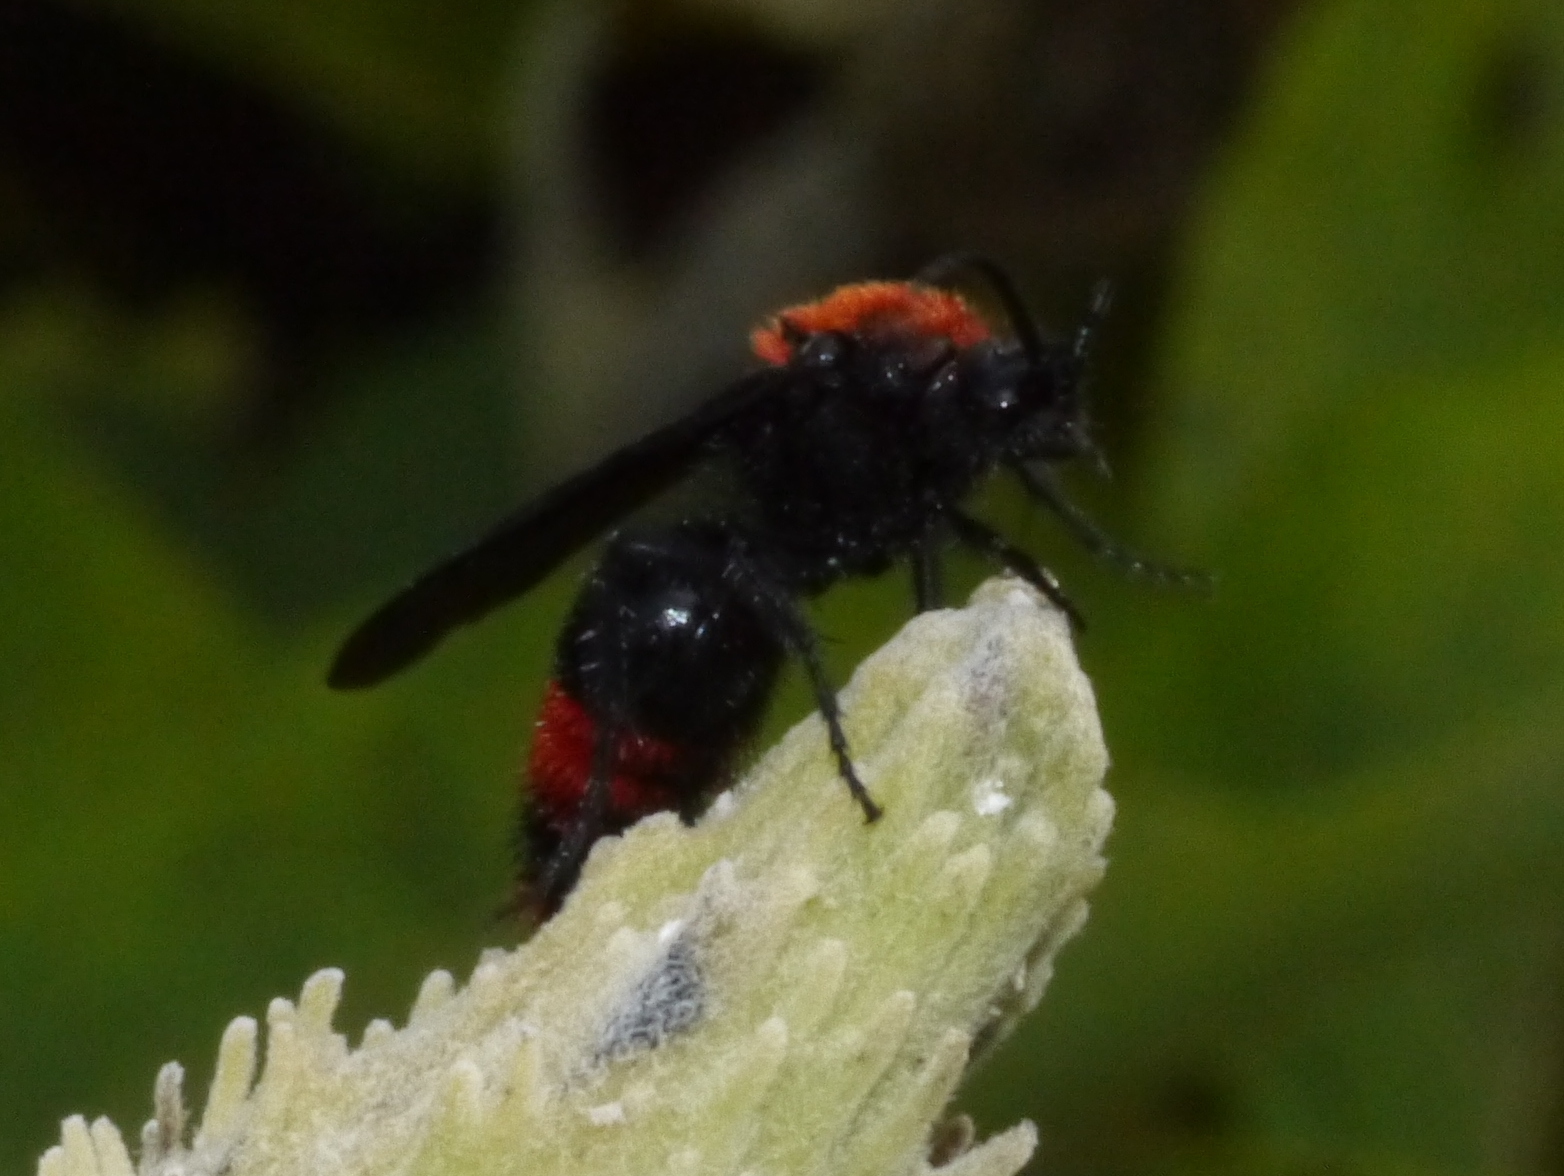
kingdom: Animalia
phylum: Arthropoda
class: Insecta
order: Hymenoptera
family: Mutillidae
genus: Dasymutilla
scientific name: Dasymutilla occidentalis
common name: Common eastern velvet ant
